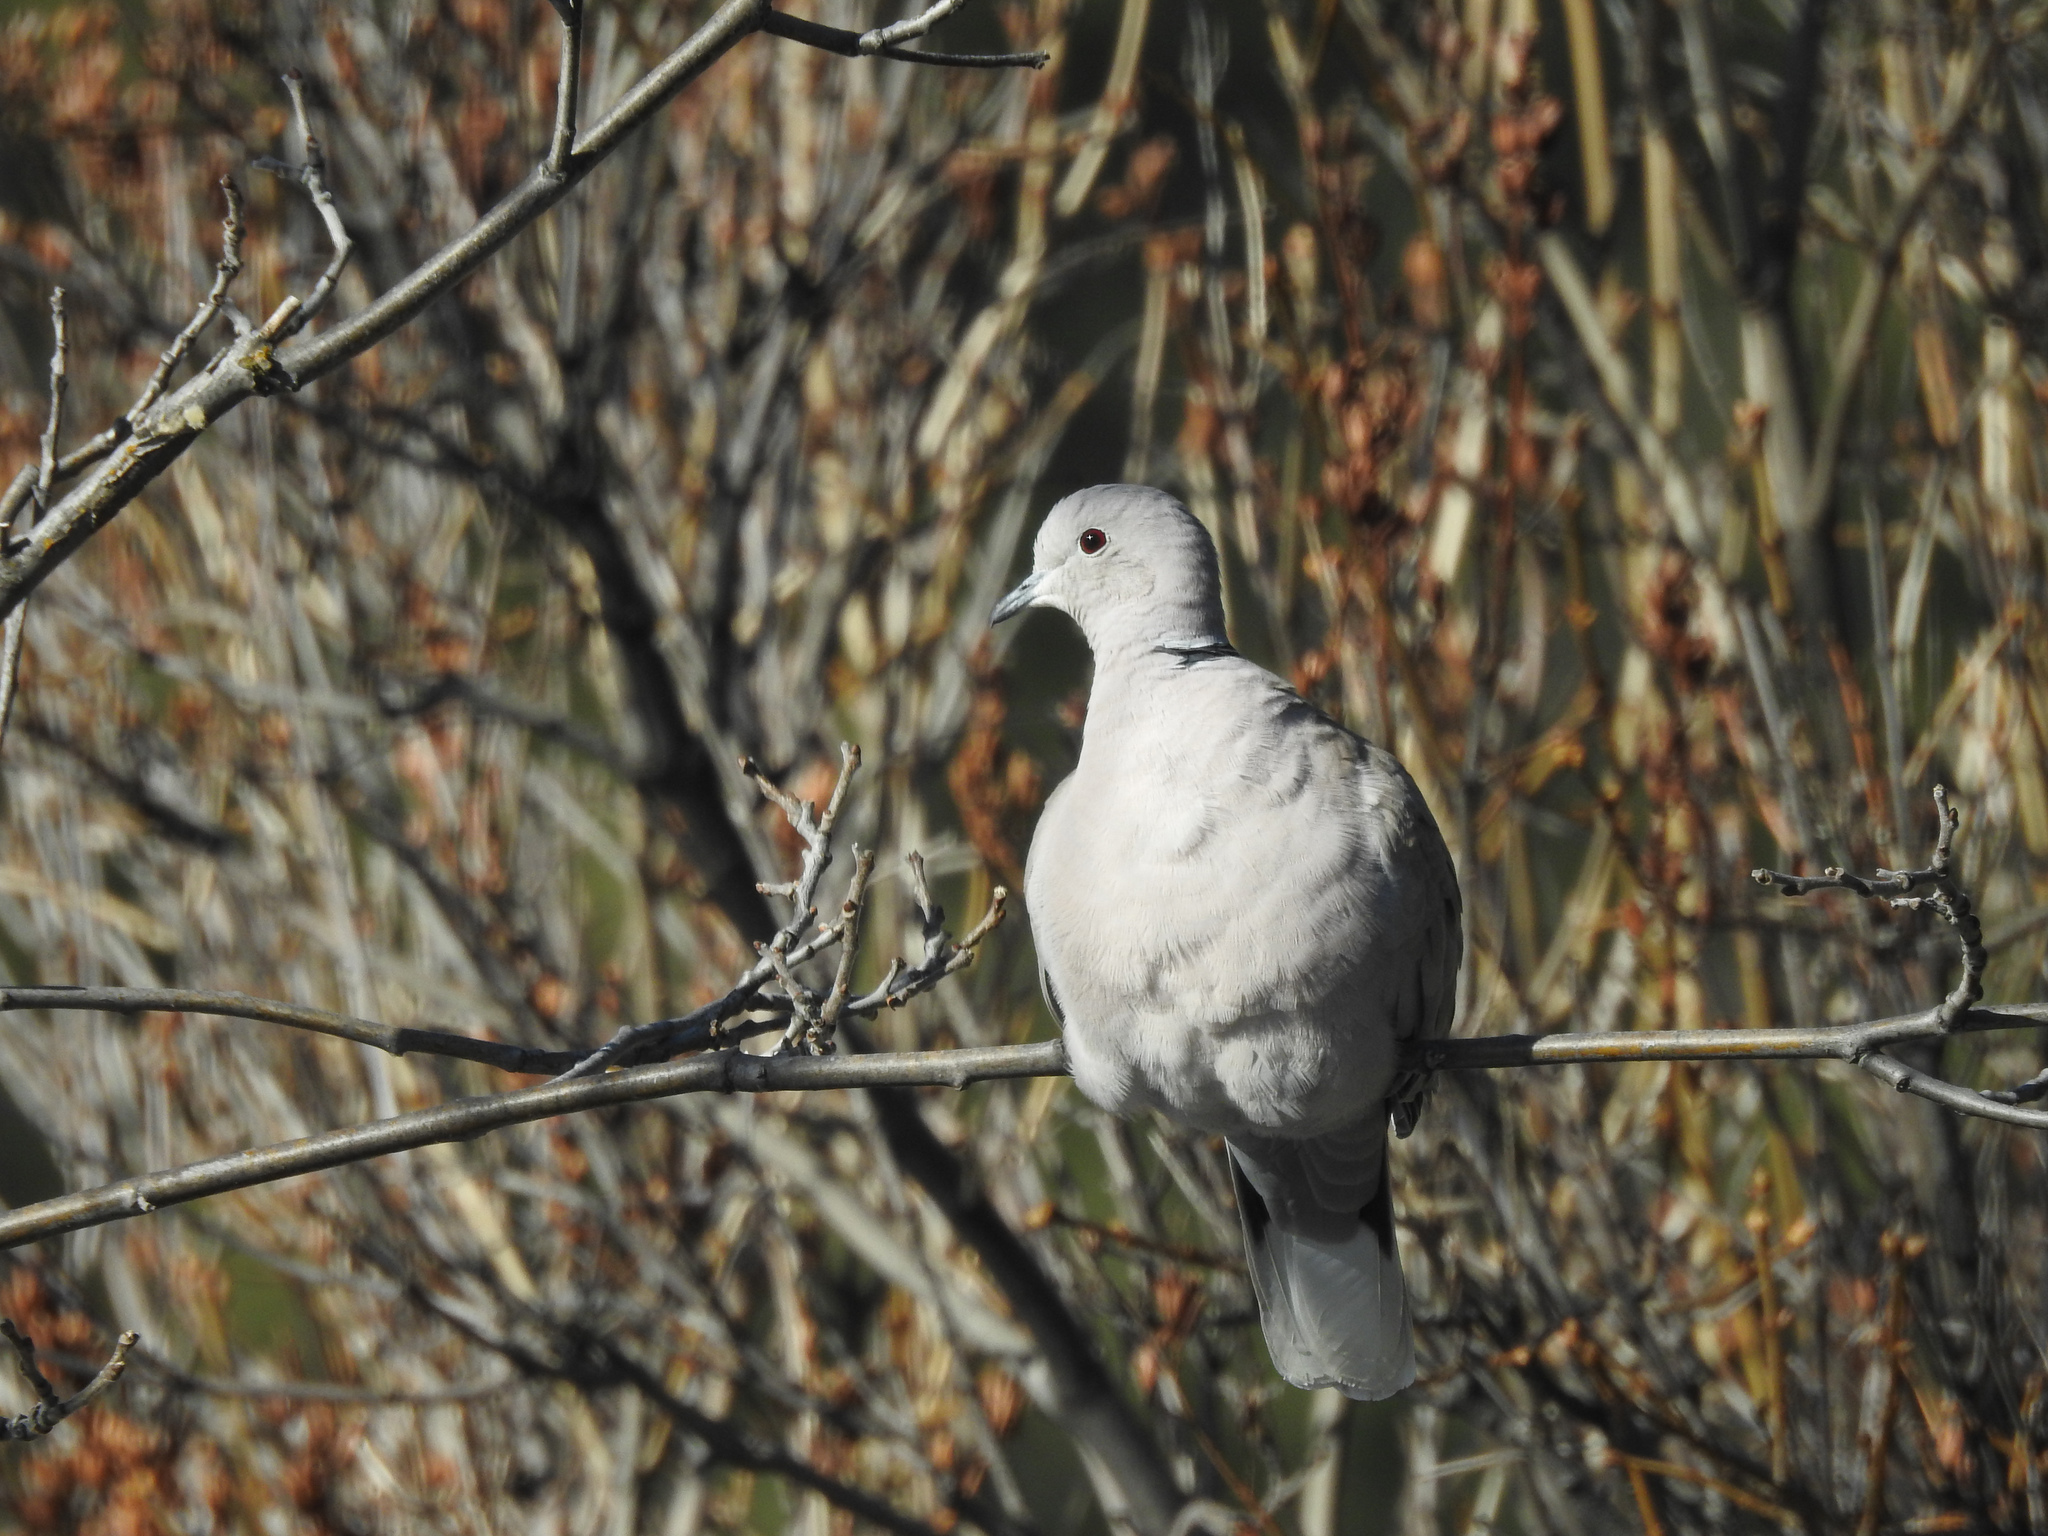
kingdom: Animalia
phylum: Chordata
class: Aves
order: Columbiformes
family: Columbidae
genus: Streptopelia
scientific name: Streptopelia decaocto
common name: Eurasian collared dove
